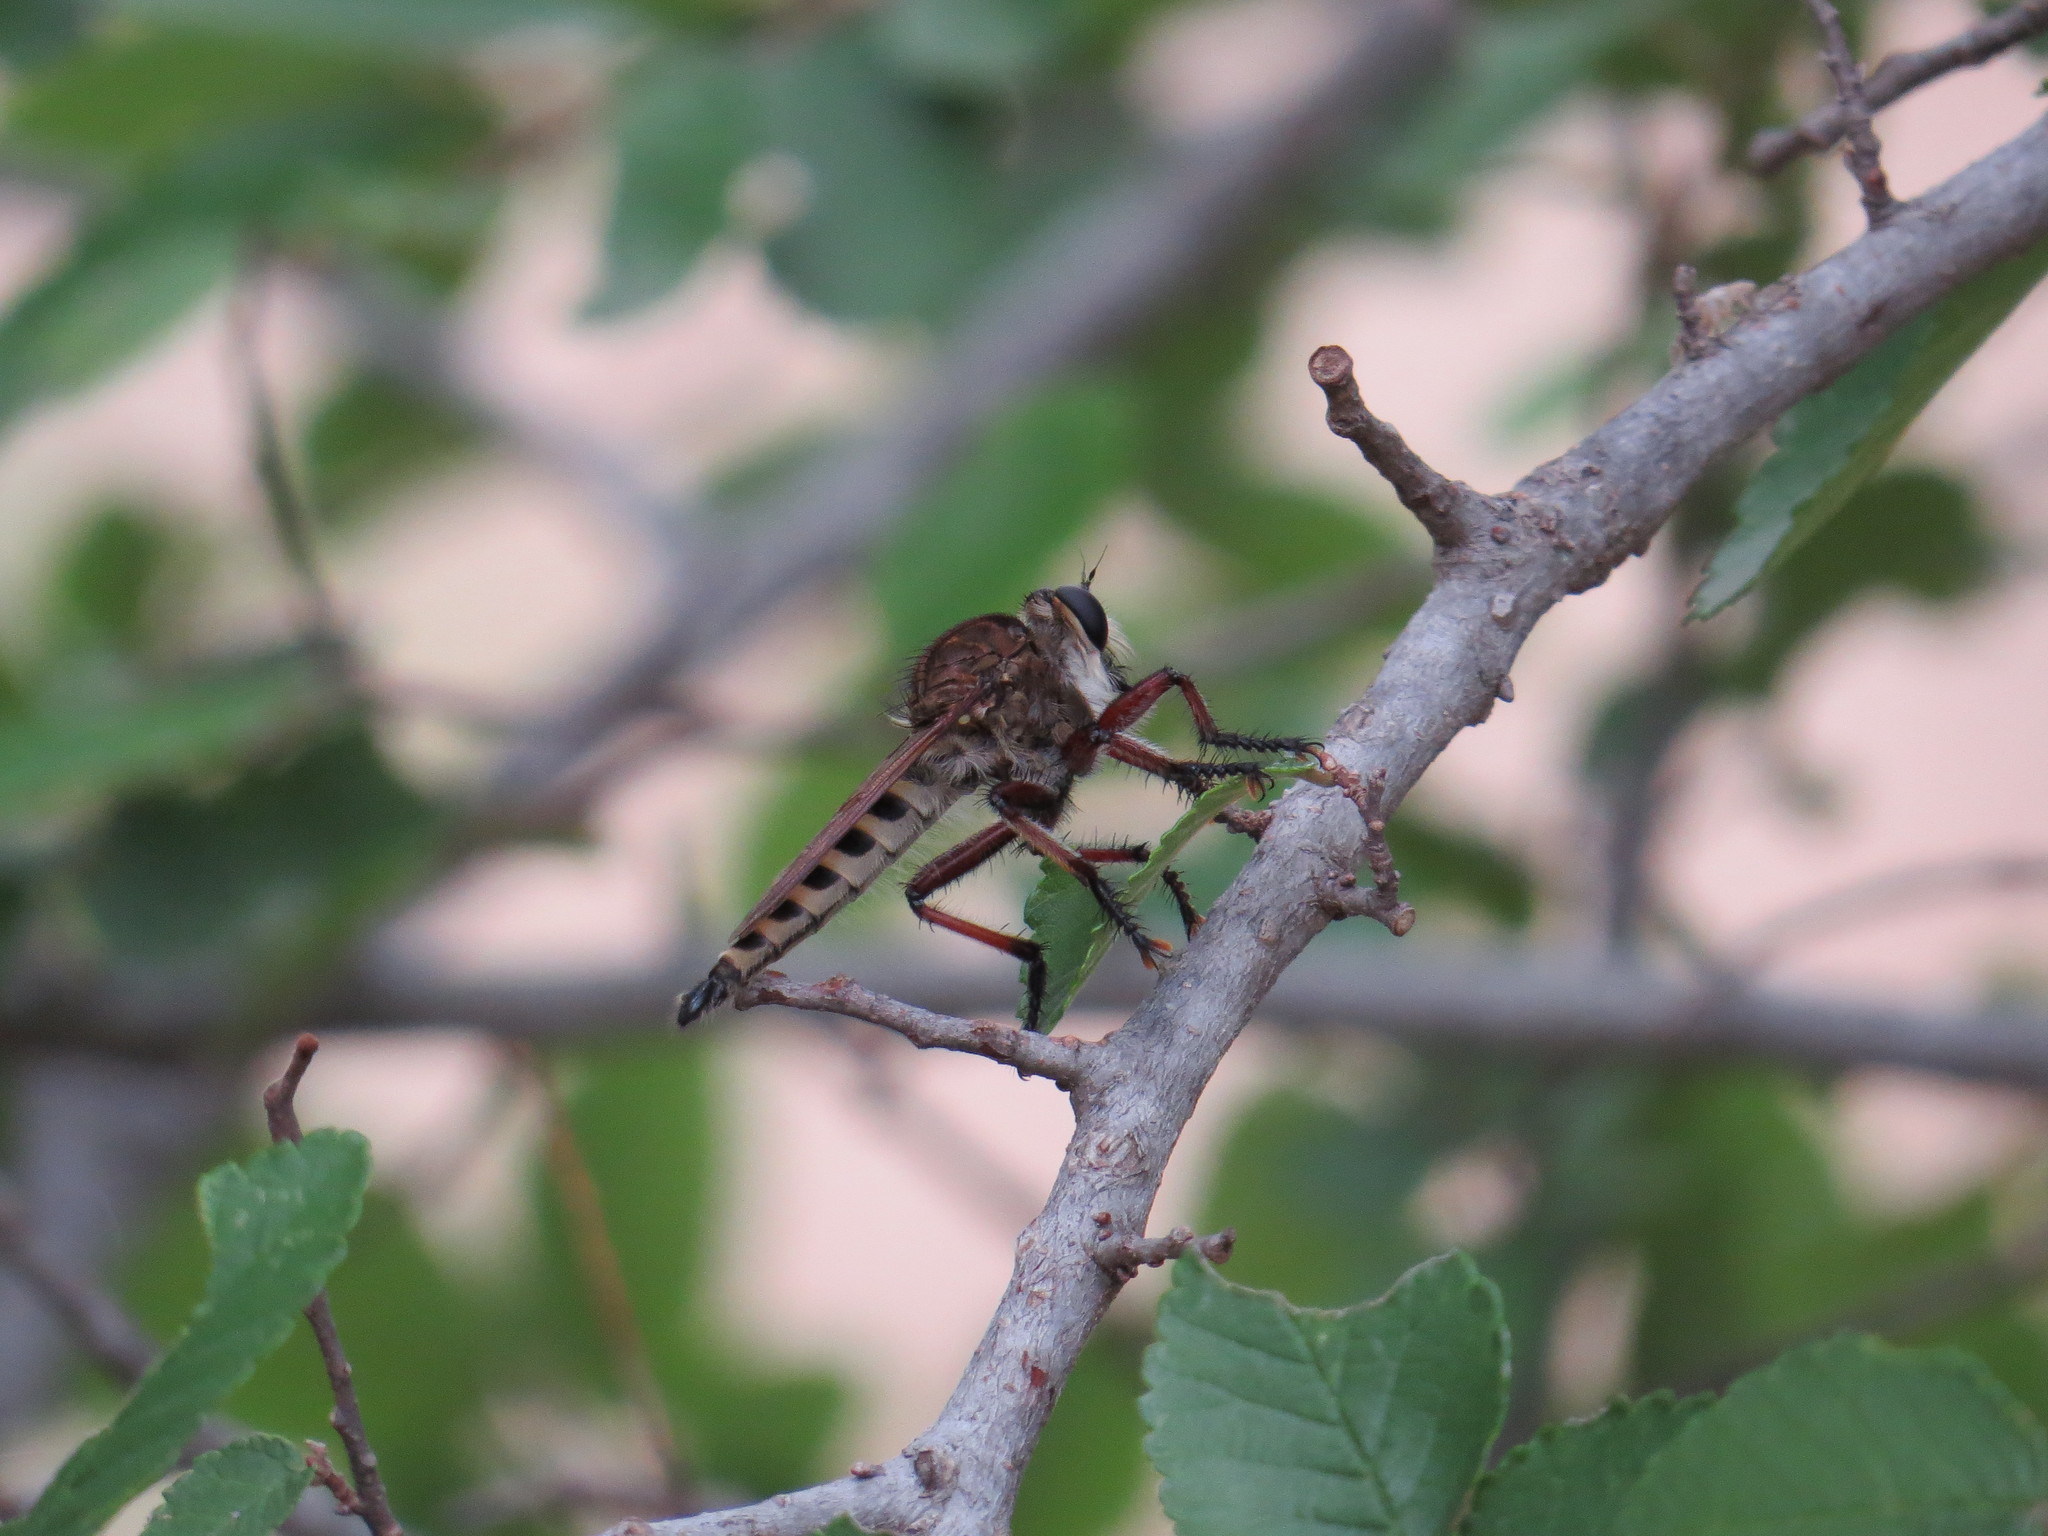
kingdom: Animalia
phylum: Arthropoda
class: Insecta
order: Diptera
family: Asilidae
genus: Promachus
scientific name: Promachus hinei
